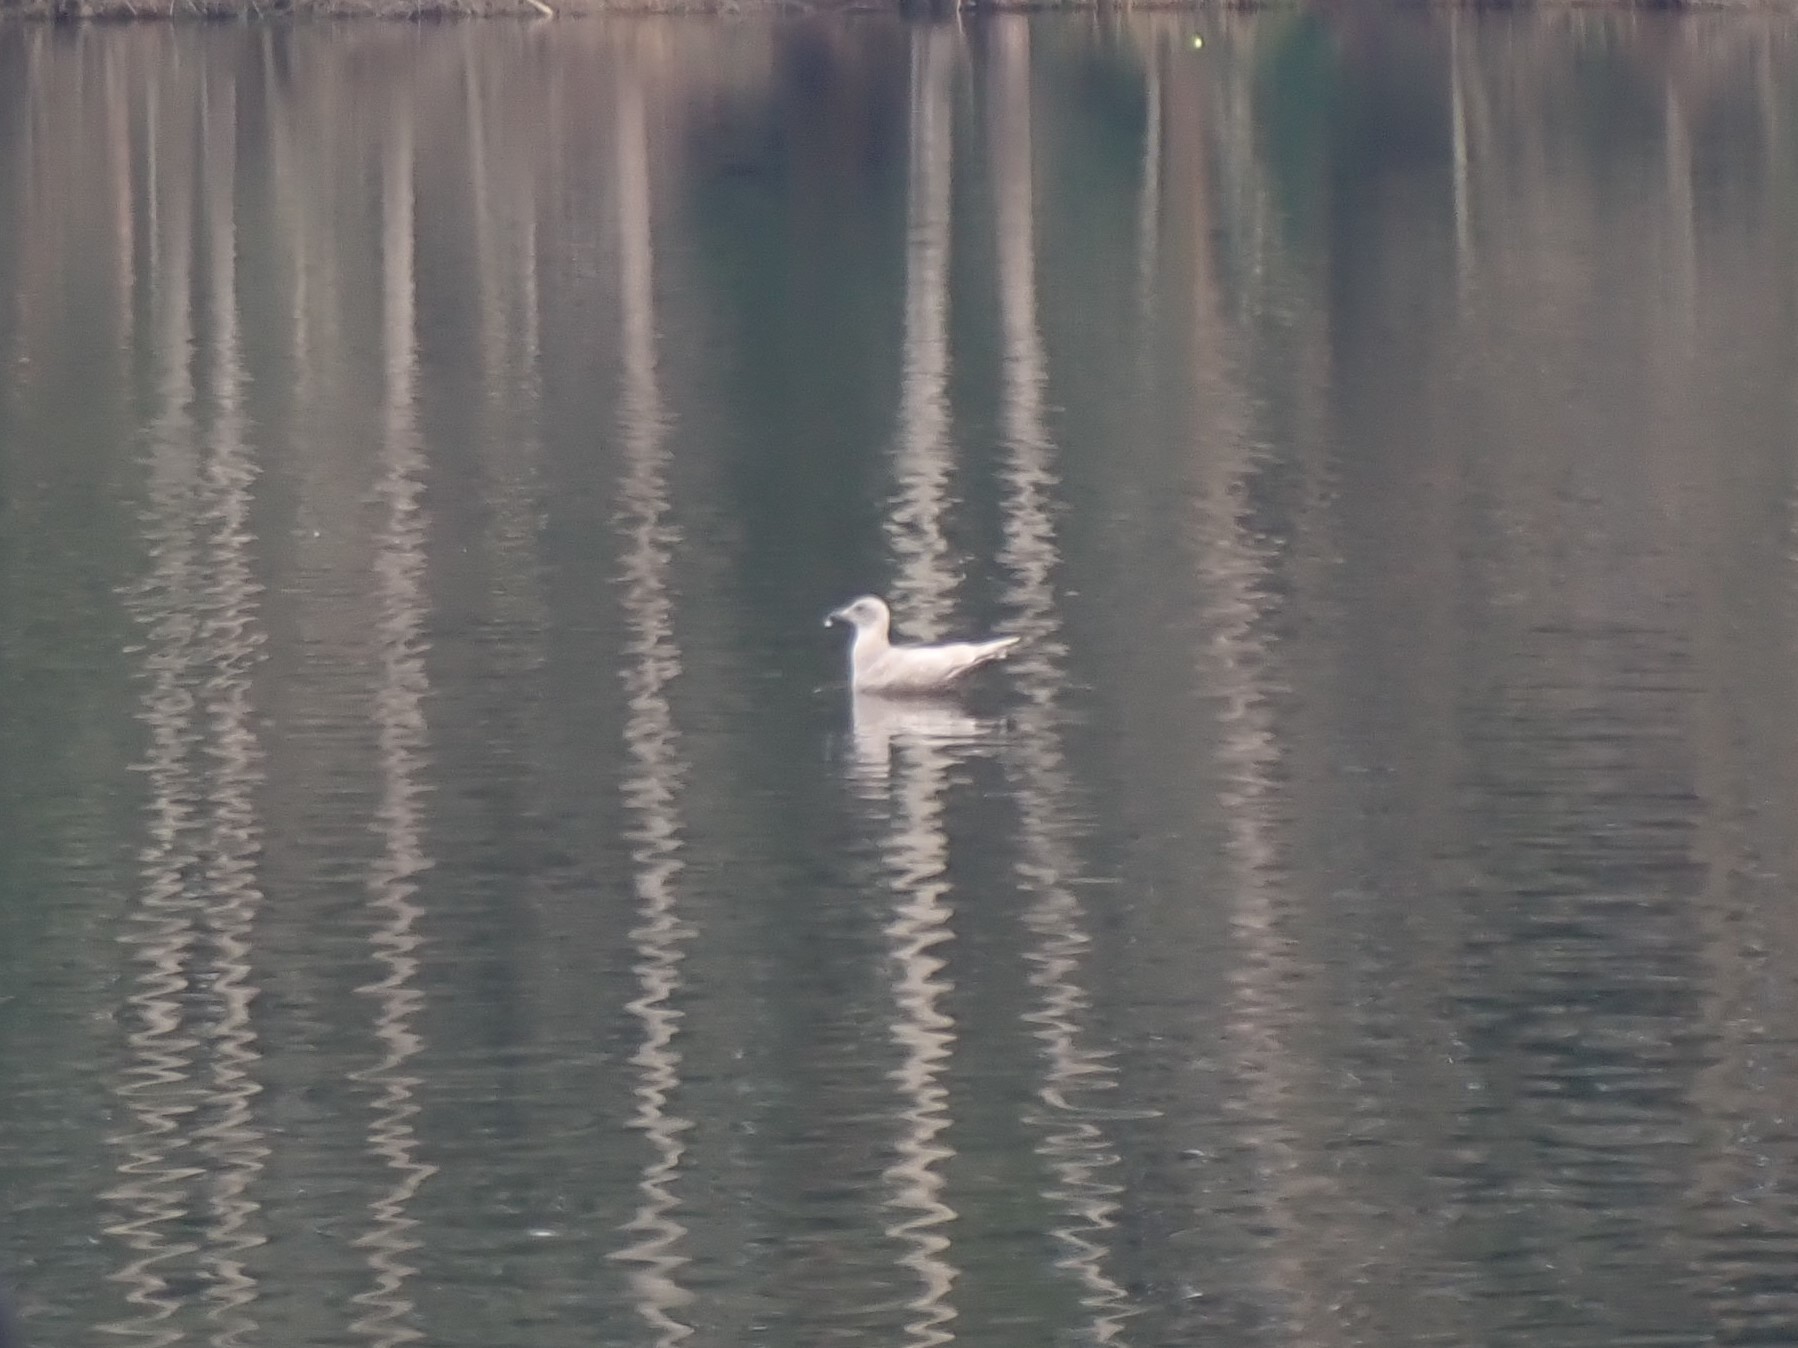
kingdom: Animalia
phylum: Chordata
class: Aves
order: Charadriiformes
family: Laridae
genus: Larus
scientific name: Larus
